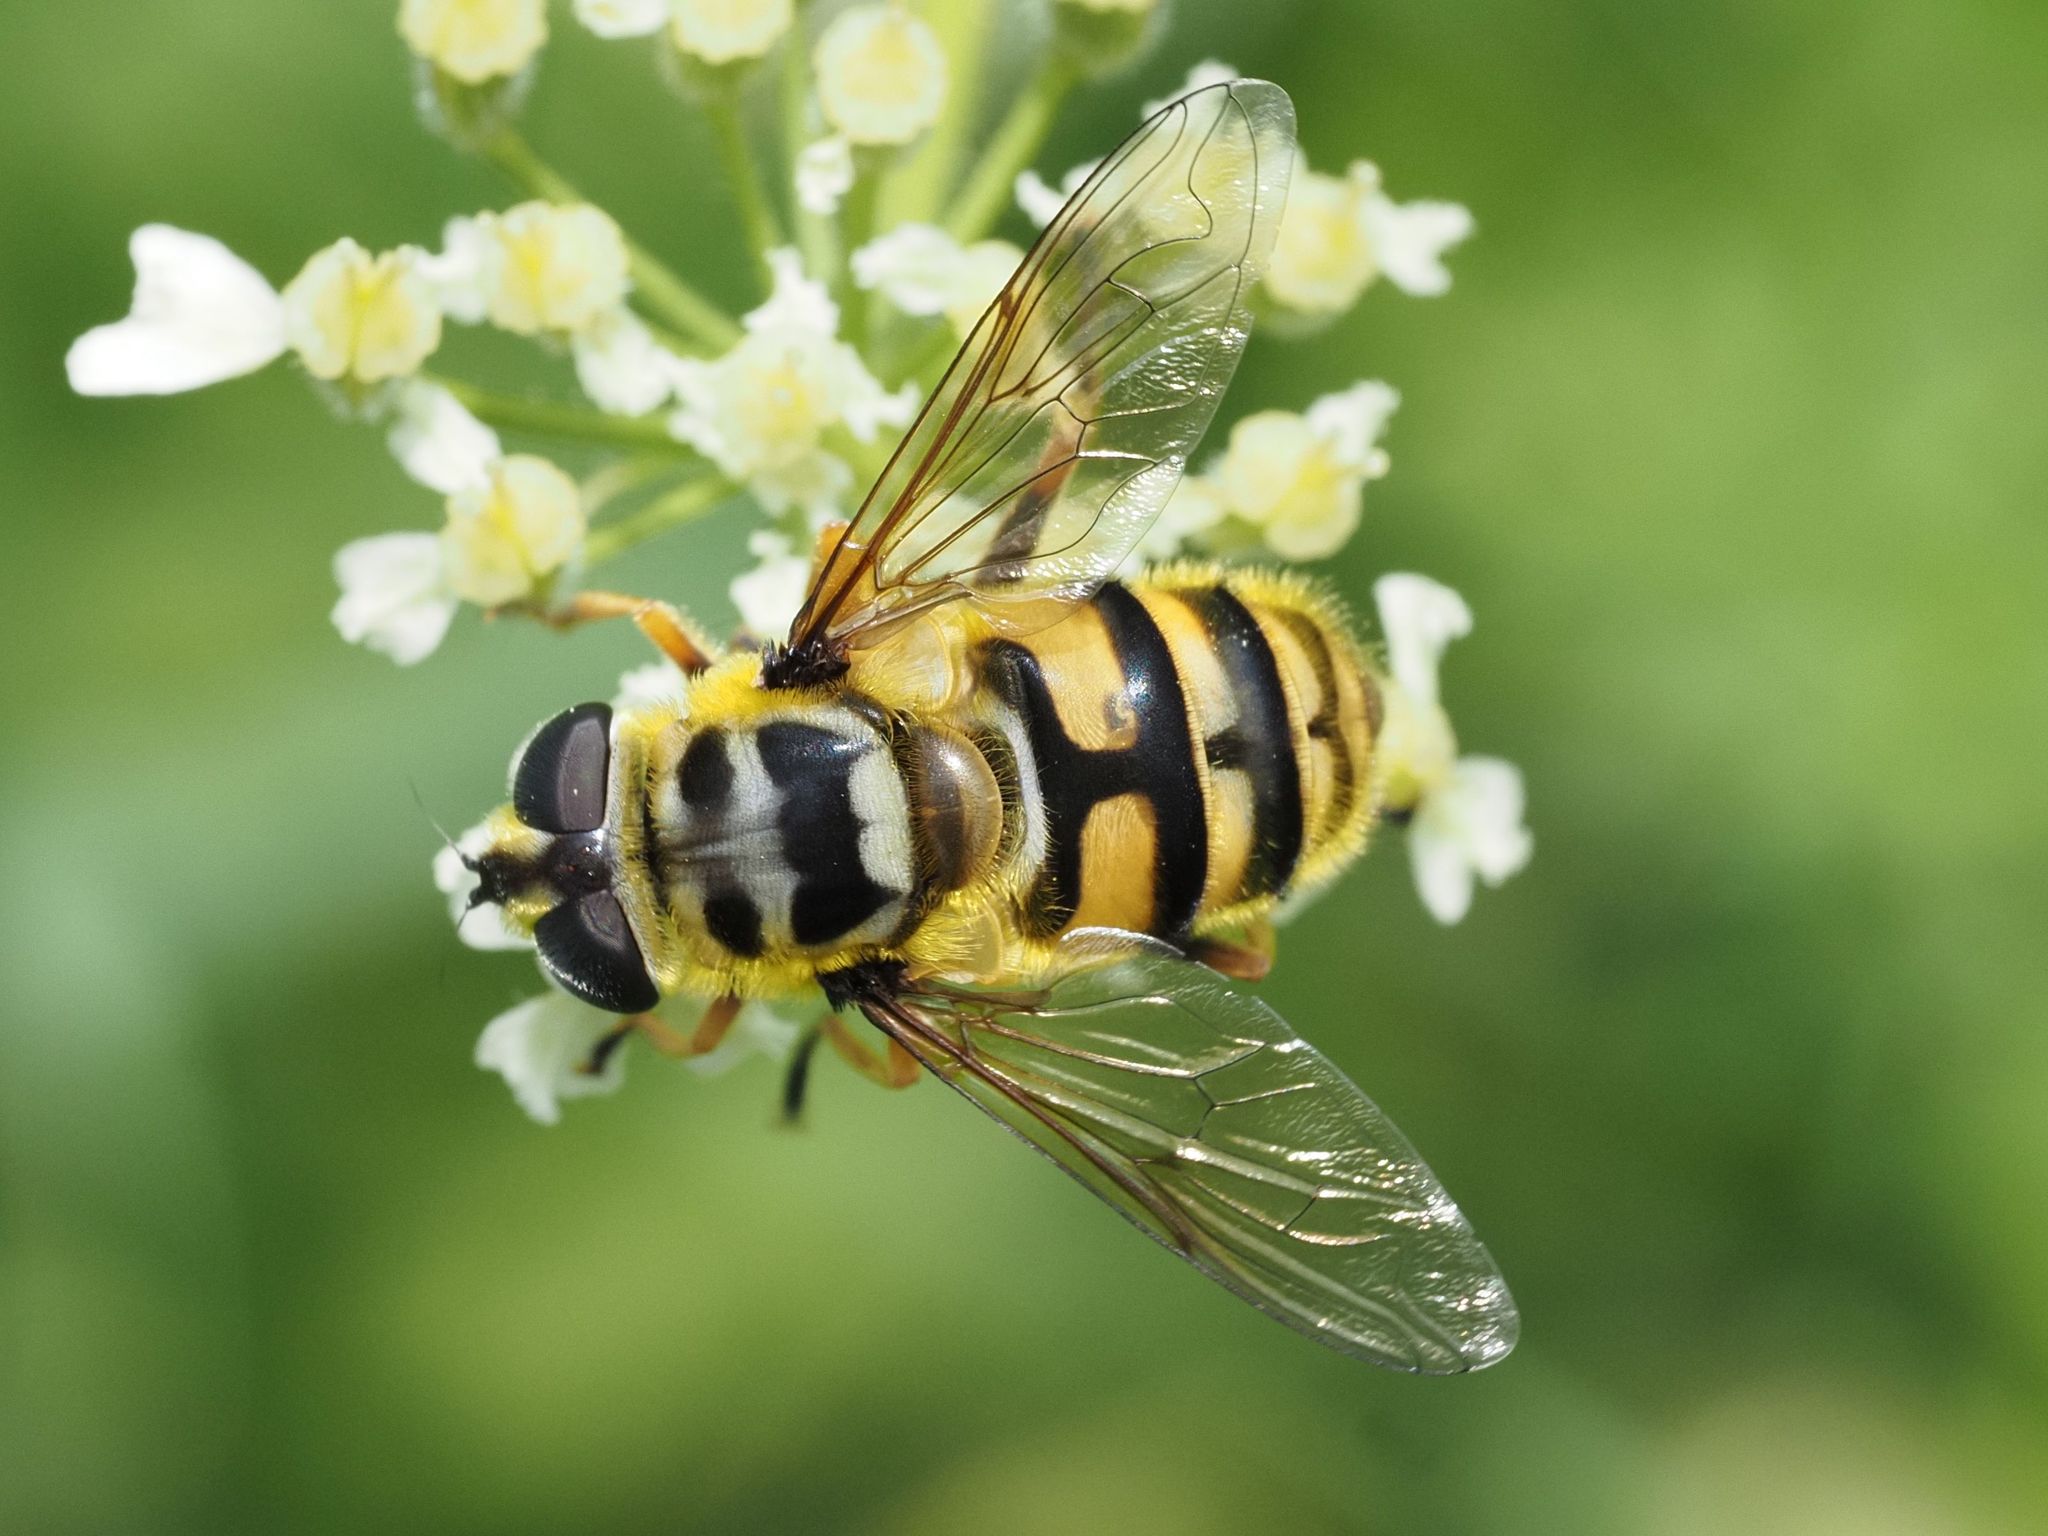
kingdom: Animalia
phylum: Arthropoda
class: Insecta
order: Diptera
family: Syrphidae
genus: Myathropa
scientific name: Myathropa florea
